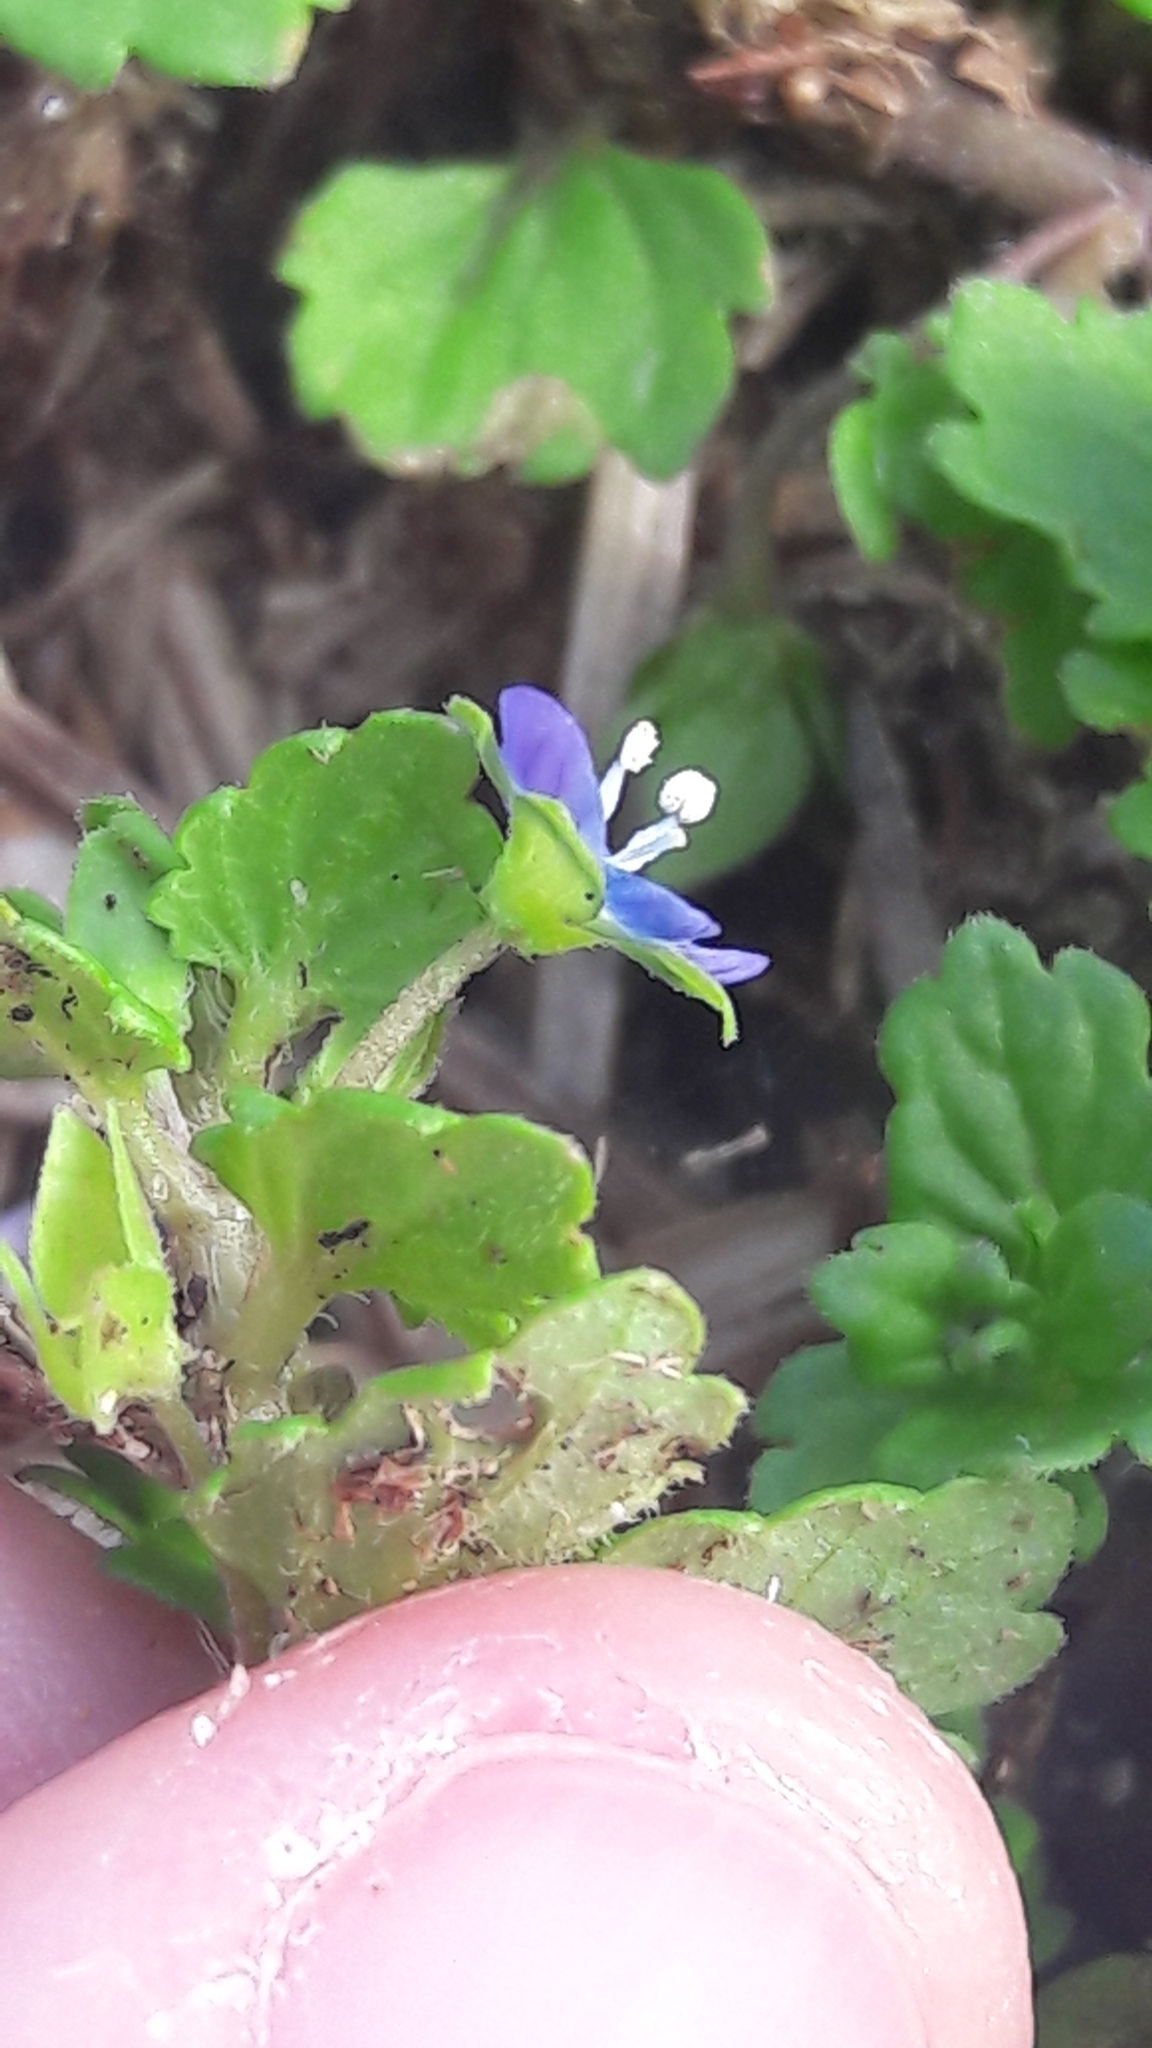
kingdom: Plantae
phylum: Tracheophyta
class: Magnoliopsida
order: Lamiales
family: Plantaginaceae
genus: Veronica
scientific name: Veronica polita
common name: Grey field-speedwell
